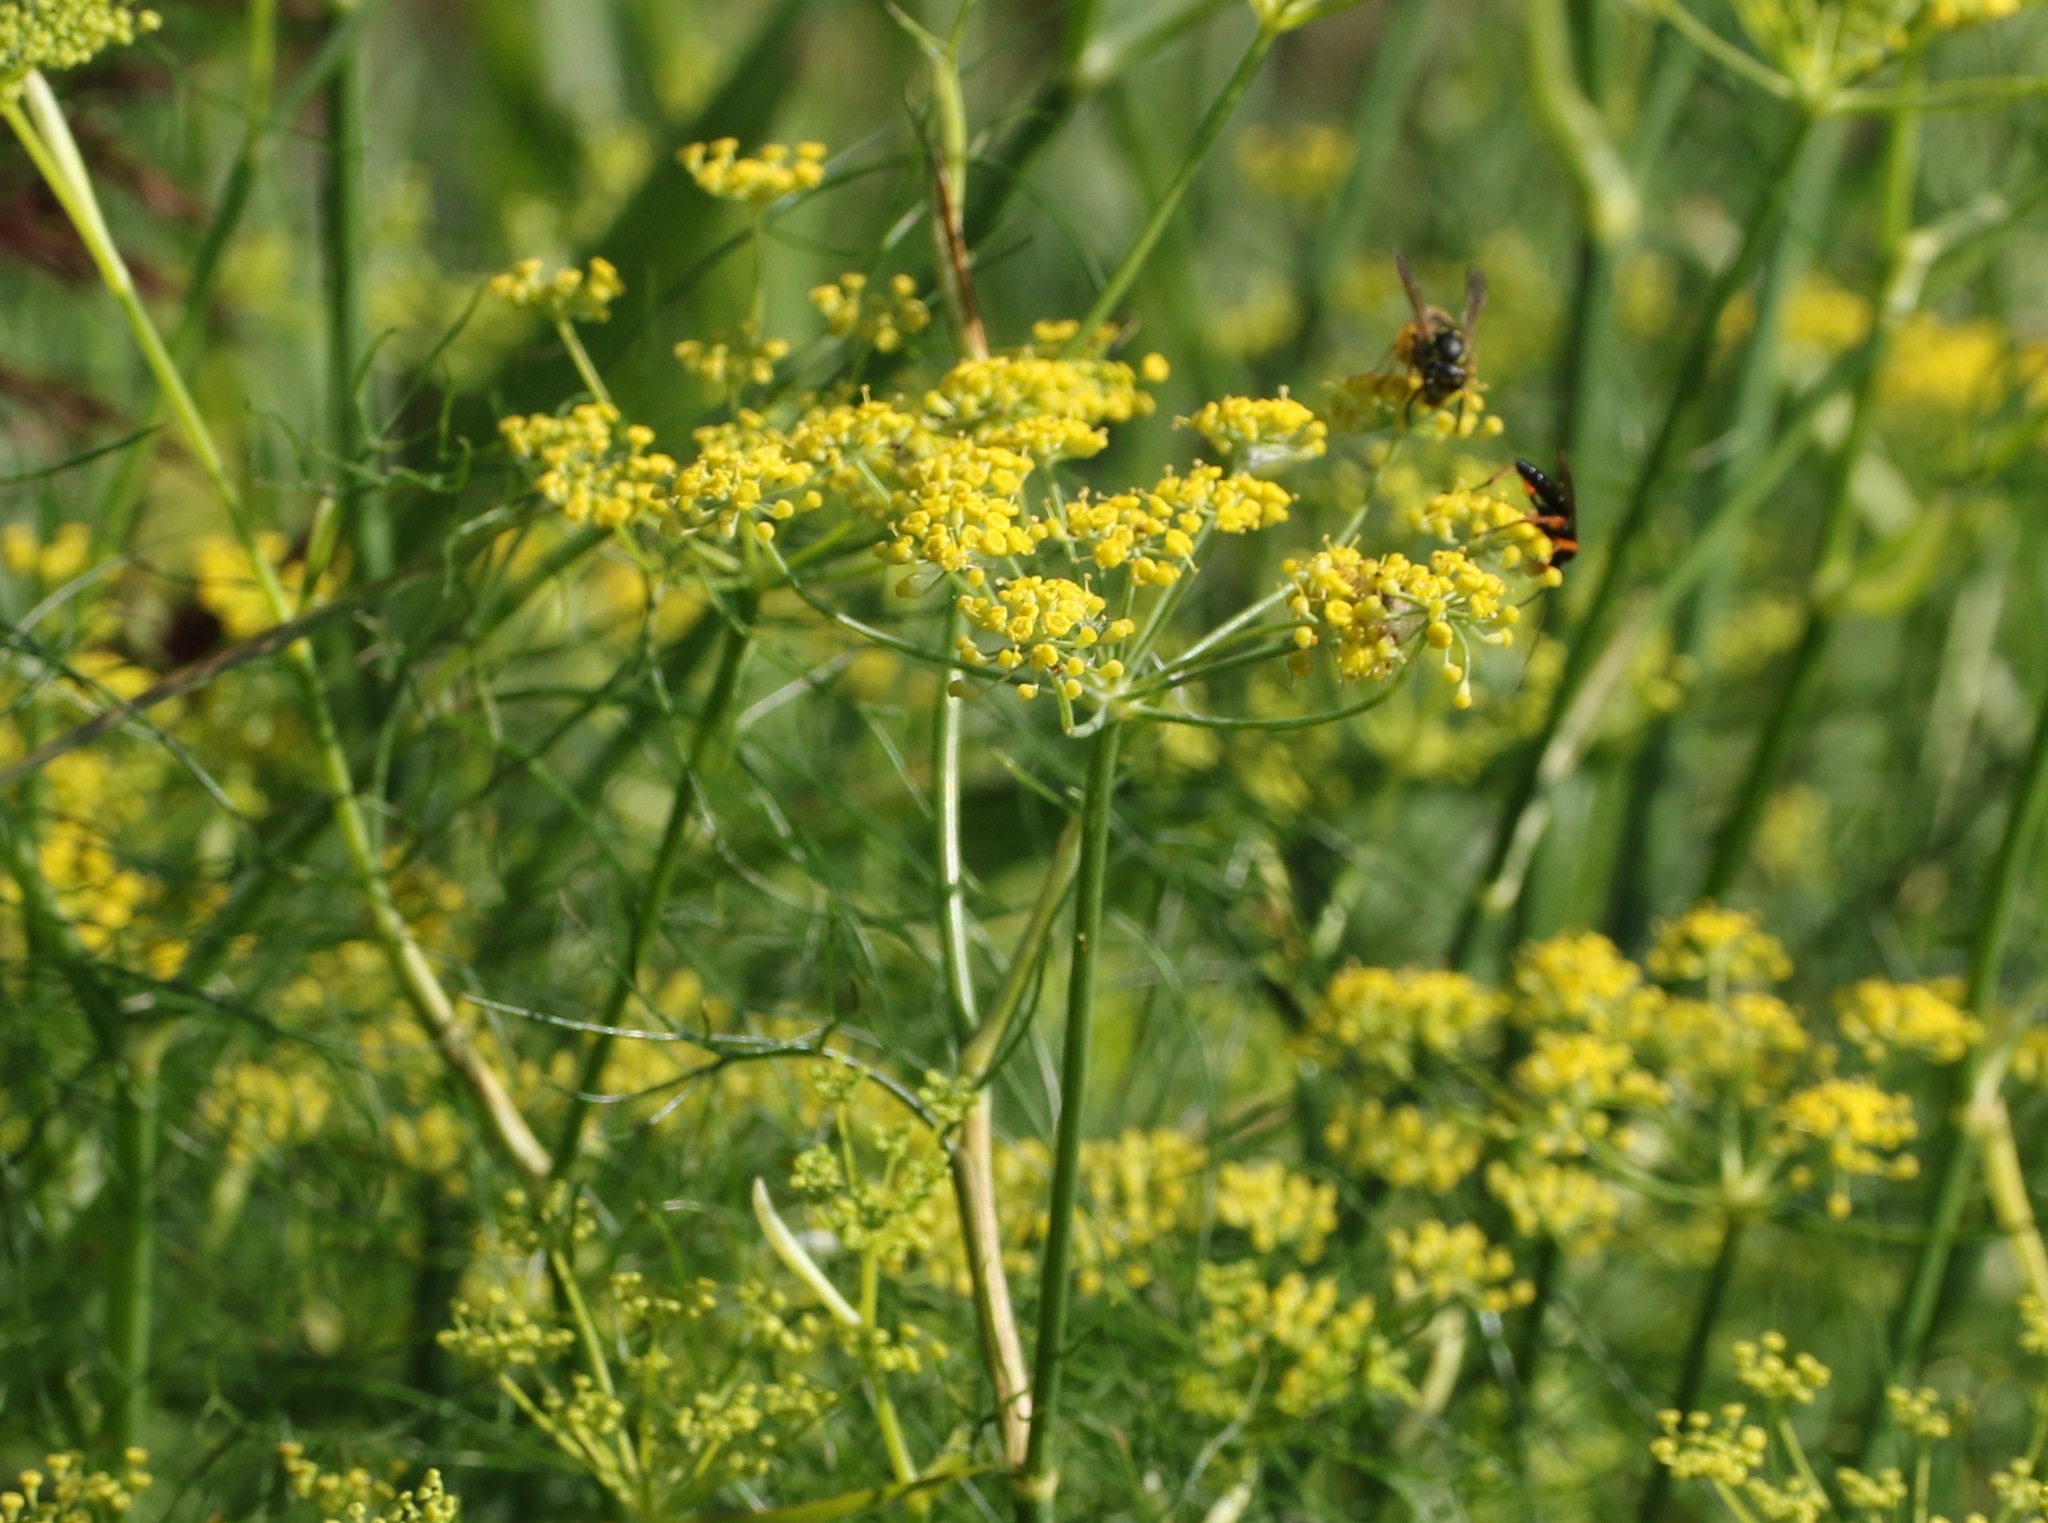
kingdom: Plantae
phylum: Tracheophyta
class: Magnoliopsida
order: Apiales
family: Apiaceae
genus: Foeniculum
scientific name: Foeniculum vulgare
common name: Fennel
